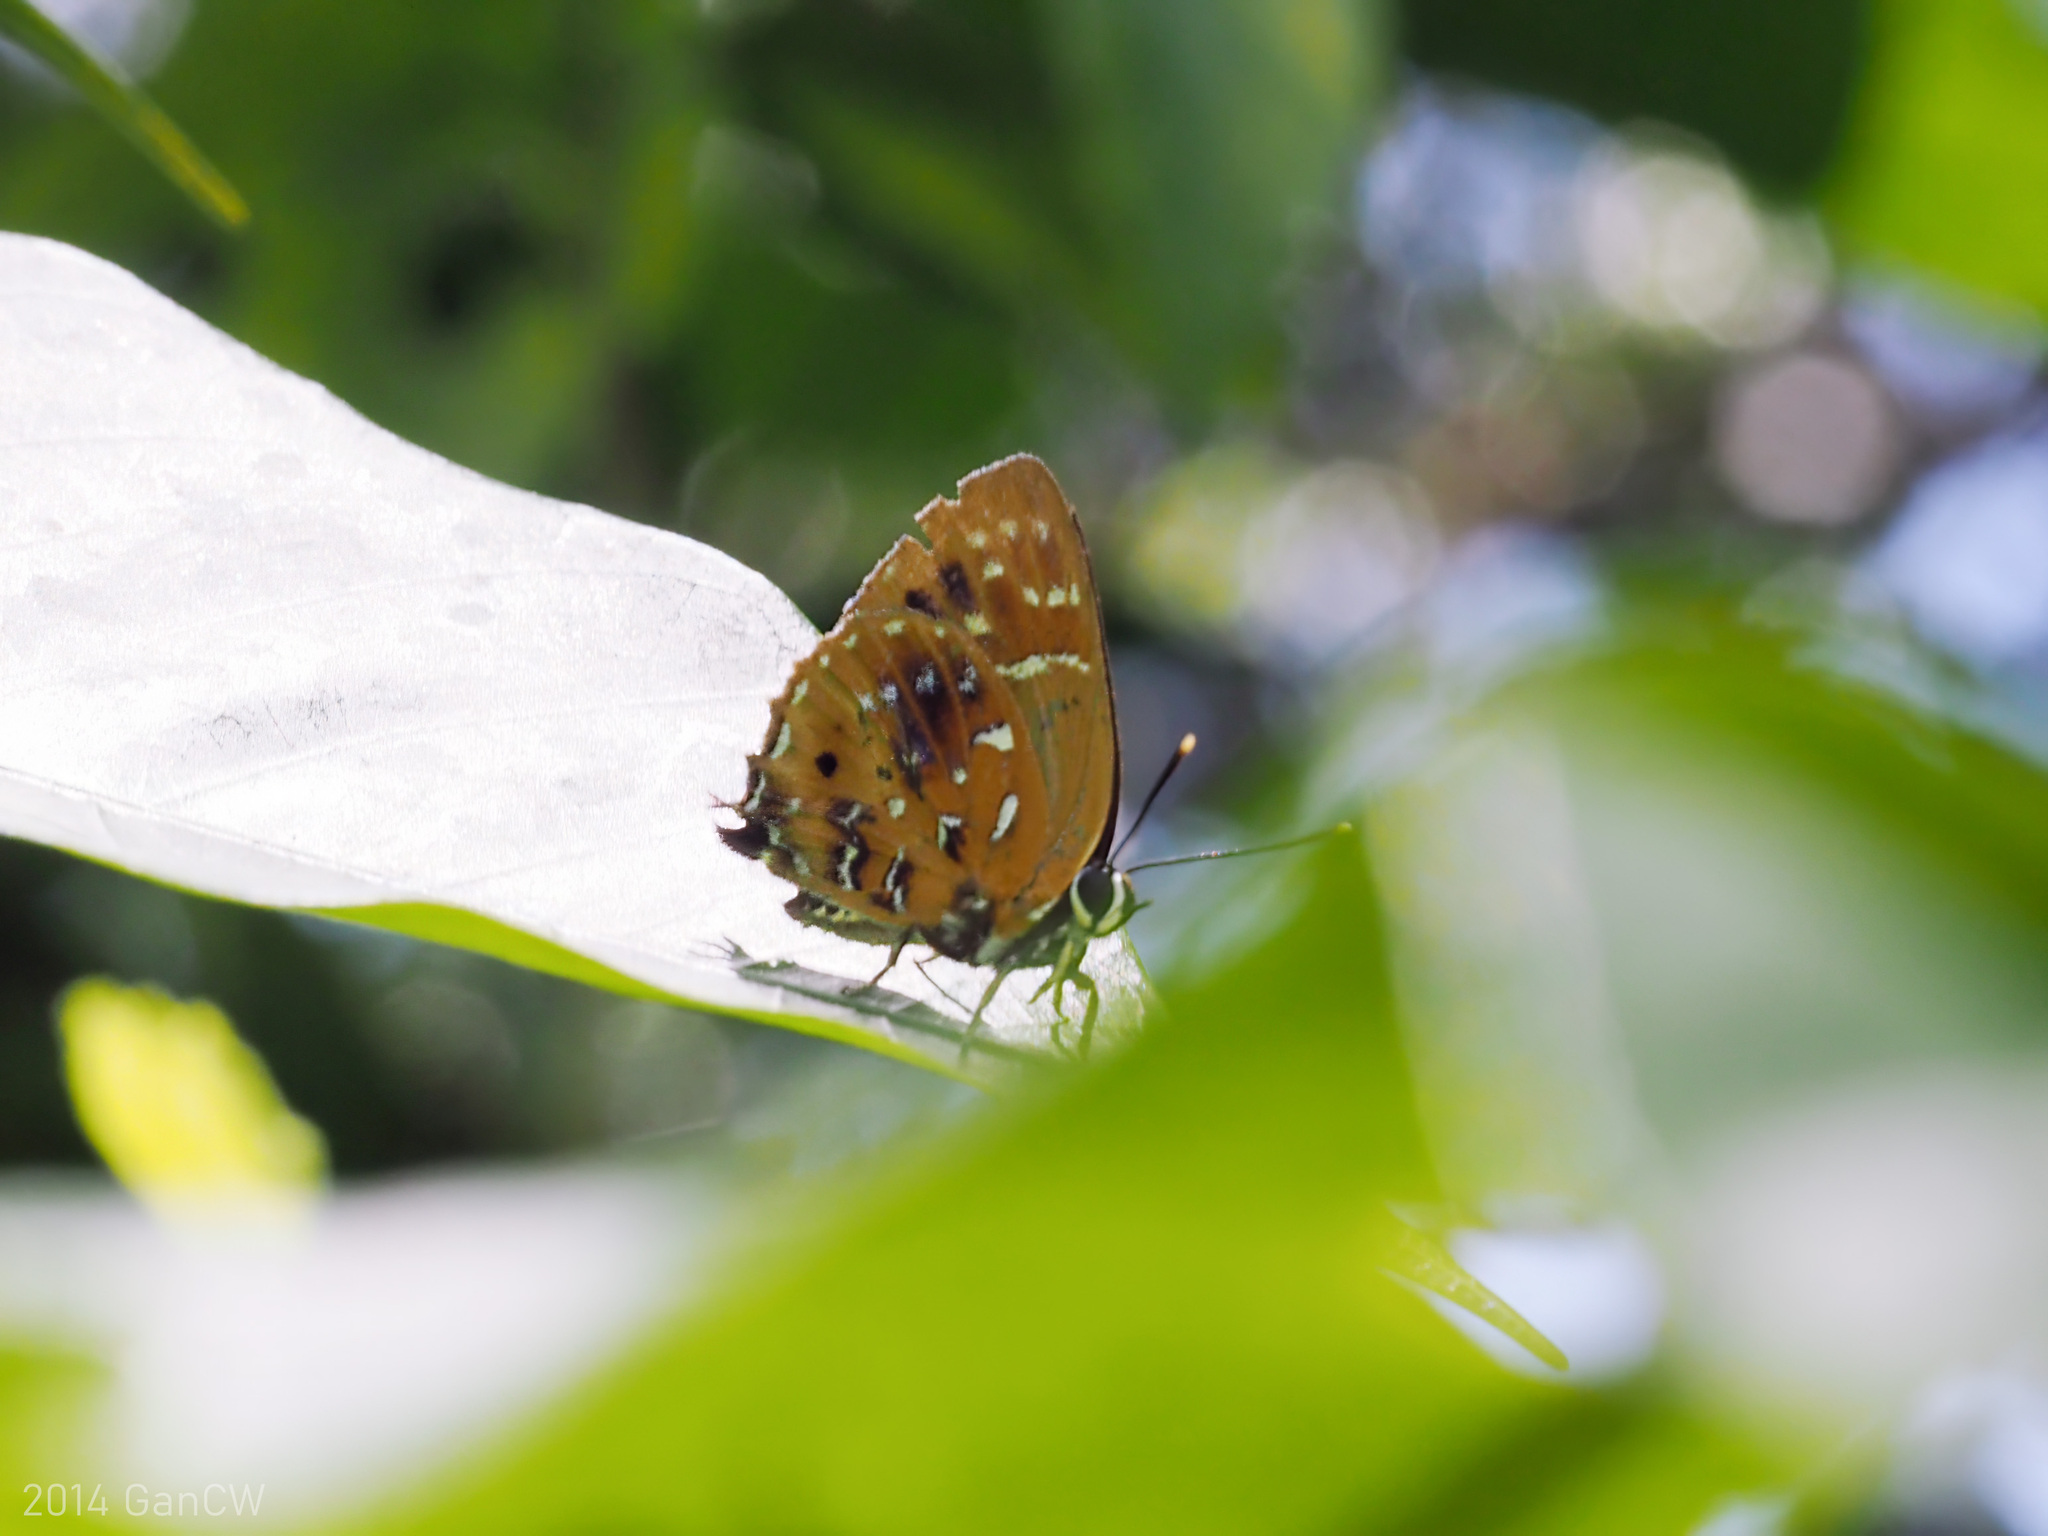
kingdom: Animalia
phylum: Arthropoda
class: Insecta
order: Lepidoptera
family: Lycaenidae
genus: Iraota
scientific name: Iraota
